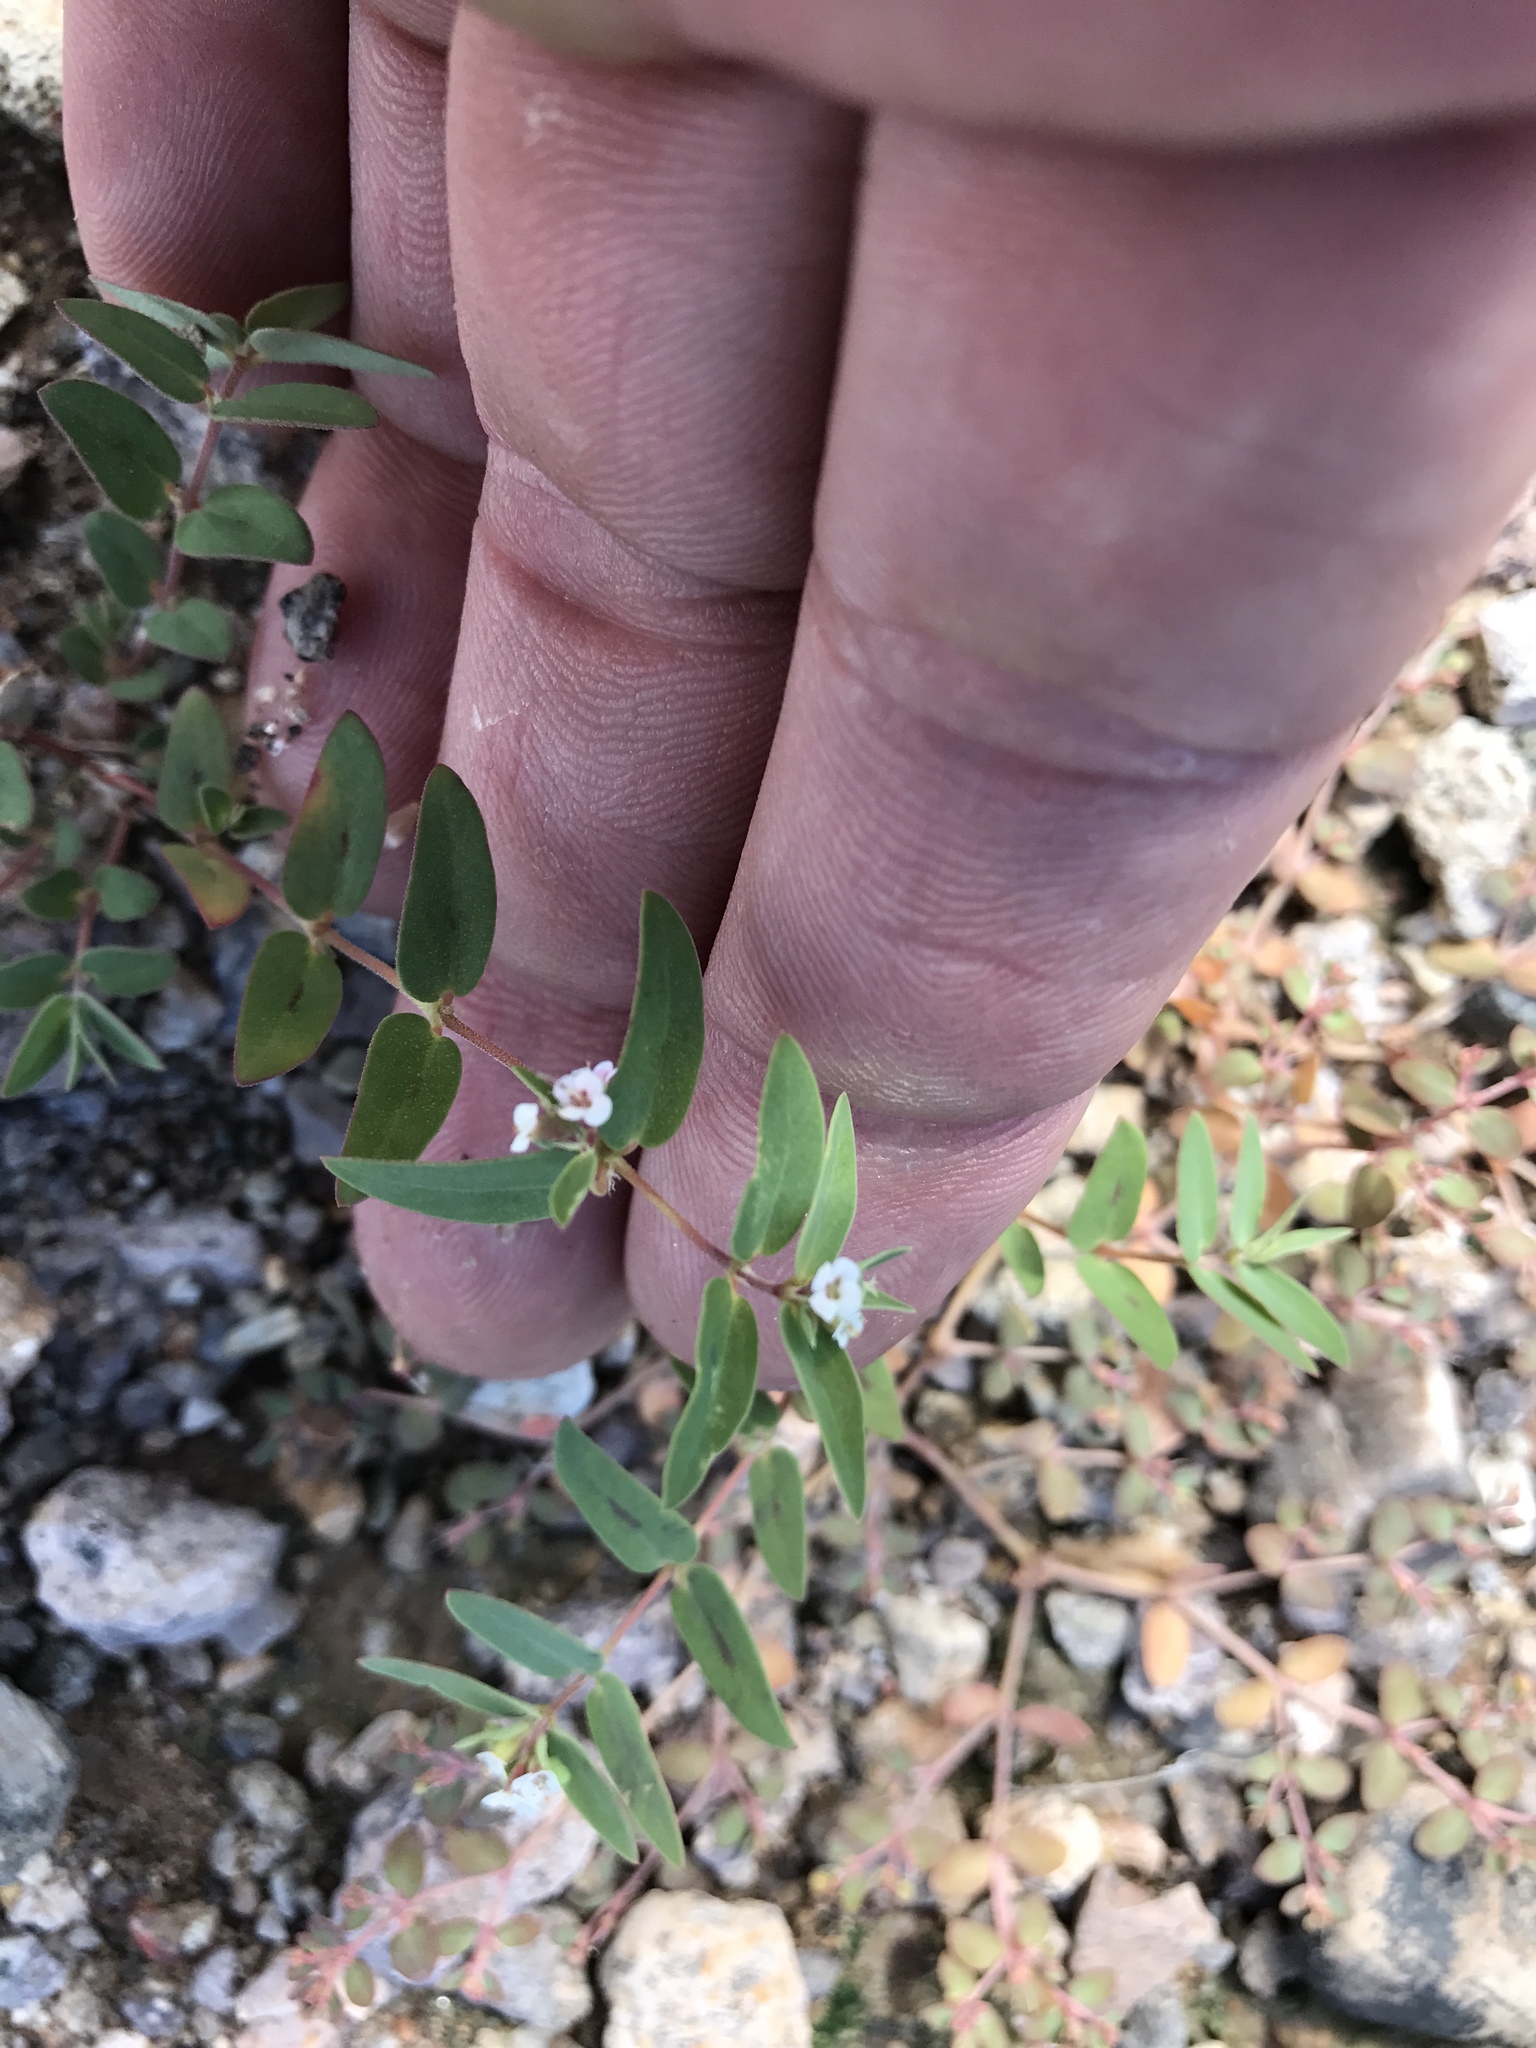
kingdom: Plantae
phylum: Tracheophyta
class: Magnoliopsida
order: Malpighiales
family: Euphorbiaceae
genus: Euphorbia
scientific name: Euphorbia capitellata
